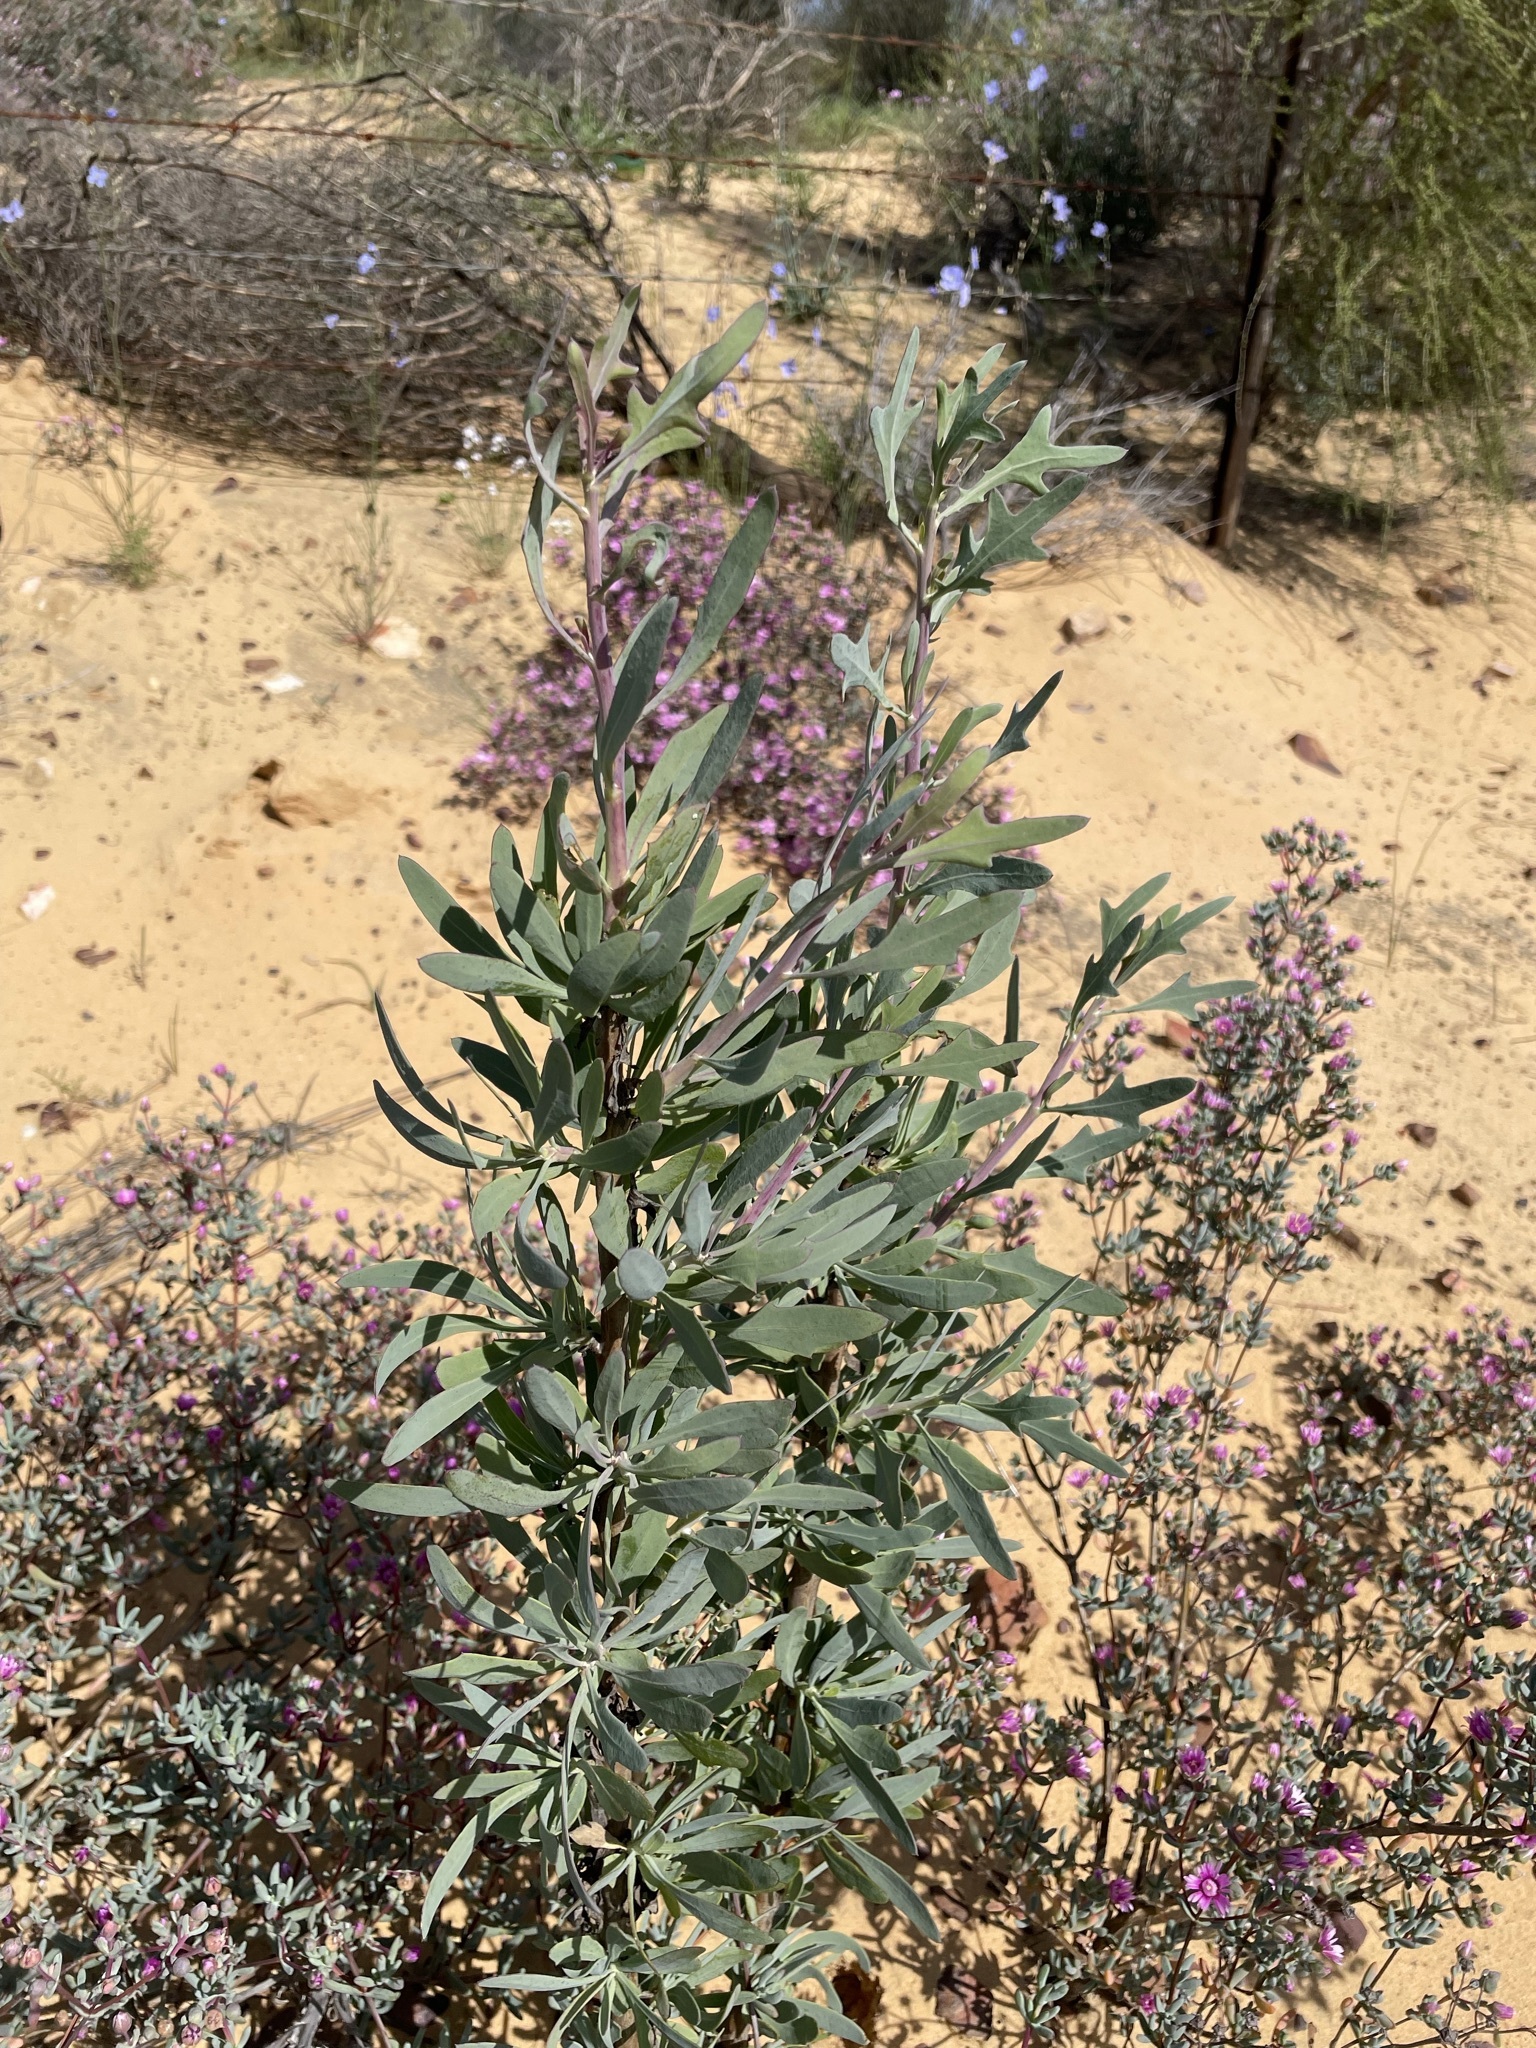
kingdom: Plantae
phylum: Tracheophyta
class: Magnoliopsida
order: Asterales
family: Asteraceae
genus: Othonna
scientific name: Othonna coronopifolia
